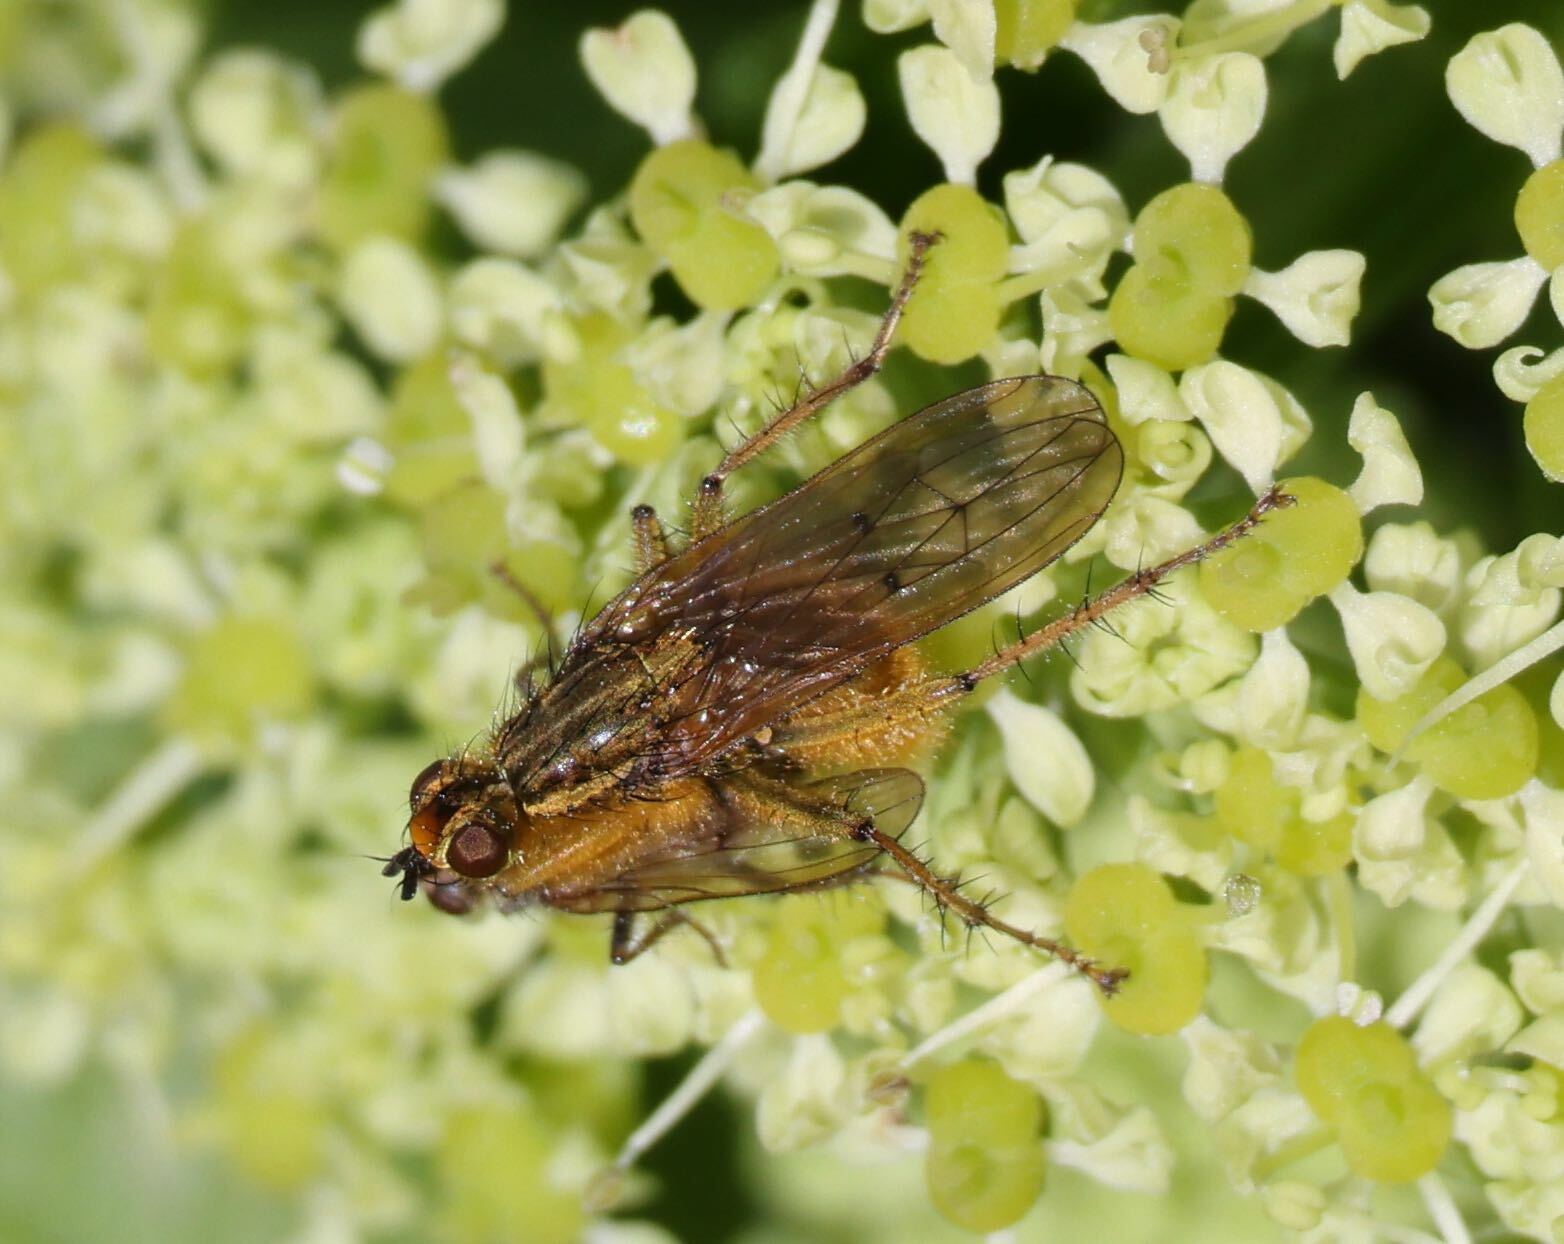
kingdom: Animalia
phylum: Arthropoda
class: Insecta
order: Diptera
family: Scathophagidae
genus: Scathophaga
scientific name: Scathophaga stercoraria
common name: Yellow dung fly
